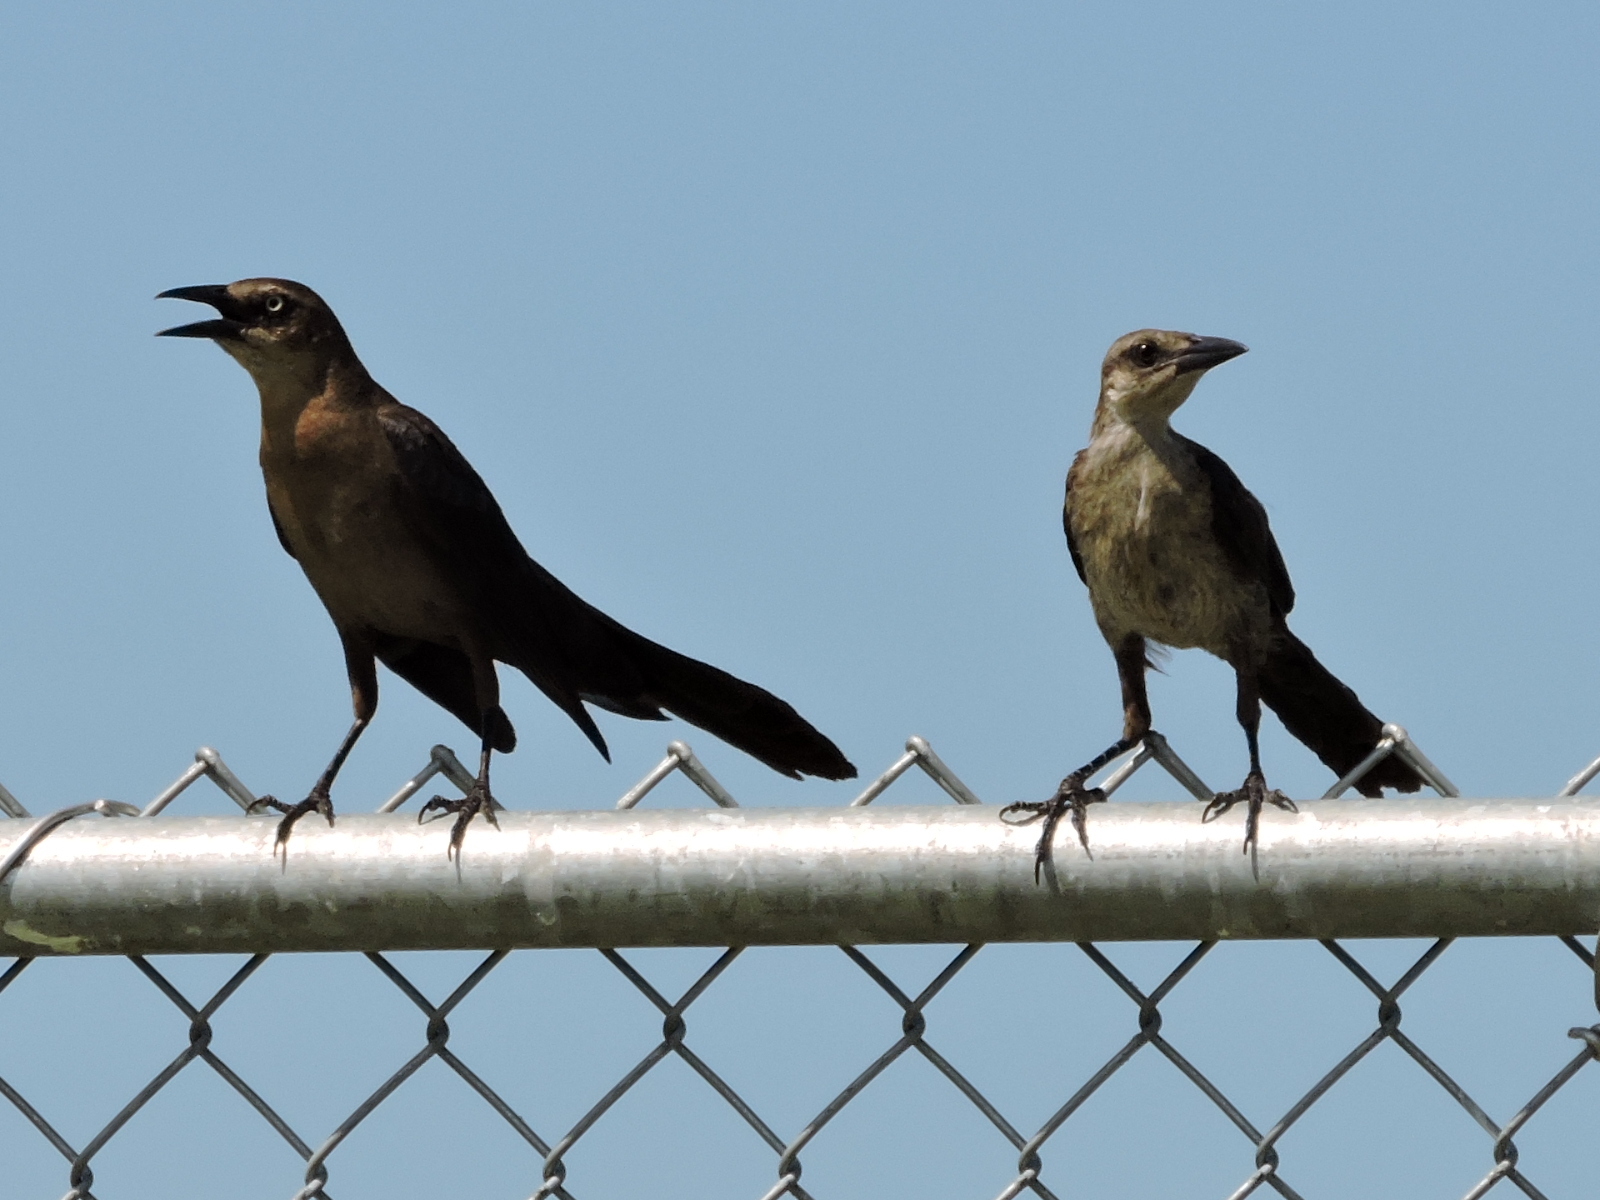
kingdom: Animalia
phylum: Chordata
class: Aves
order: Passeriformes
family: Icteridae
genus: Quiscalus
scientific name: Quiscalus mexicanus
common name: Great-tailed grackle
